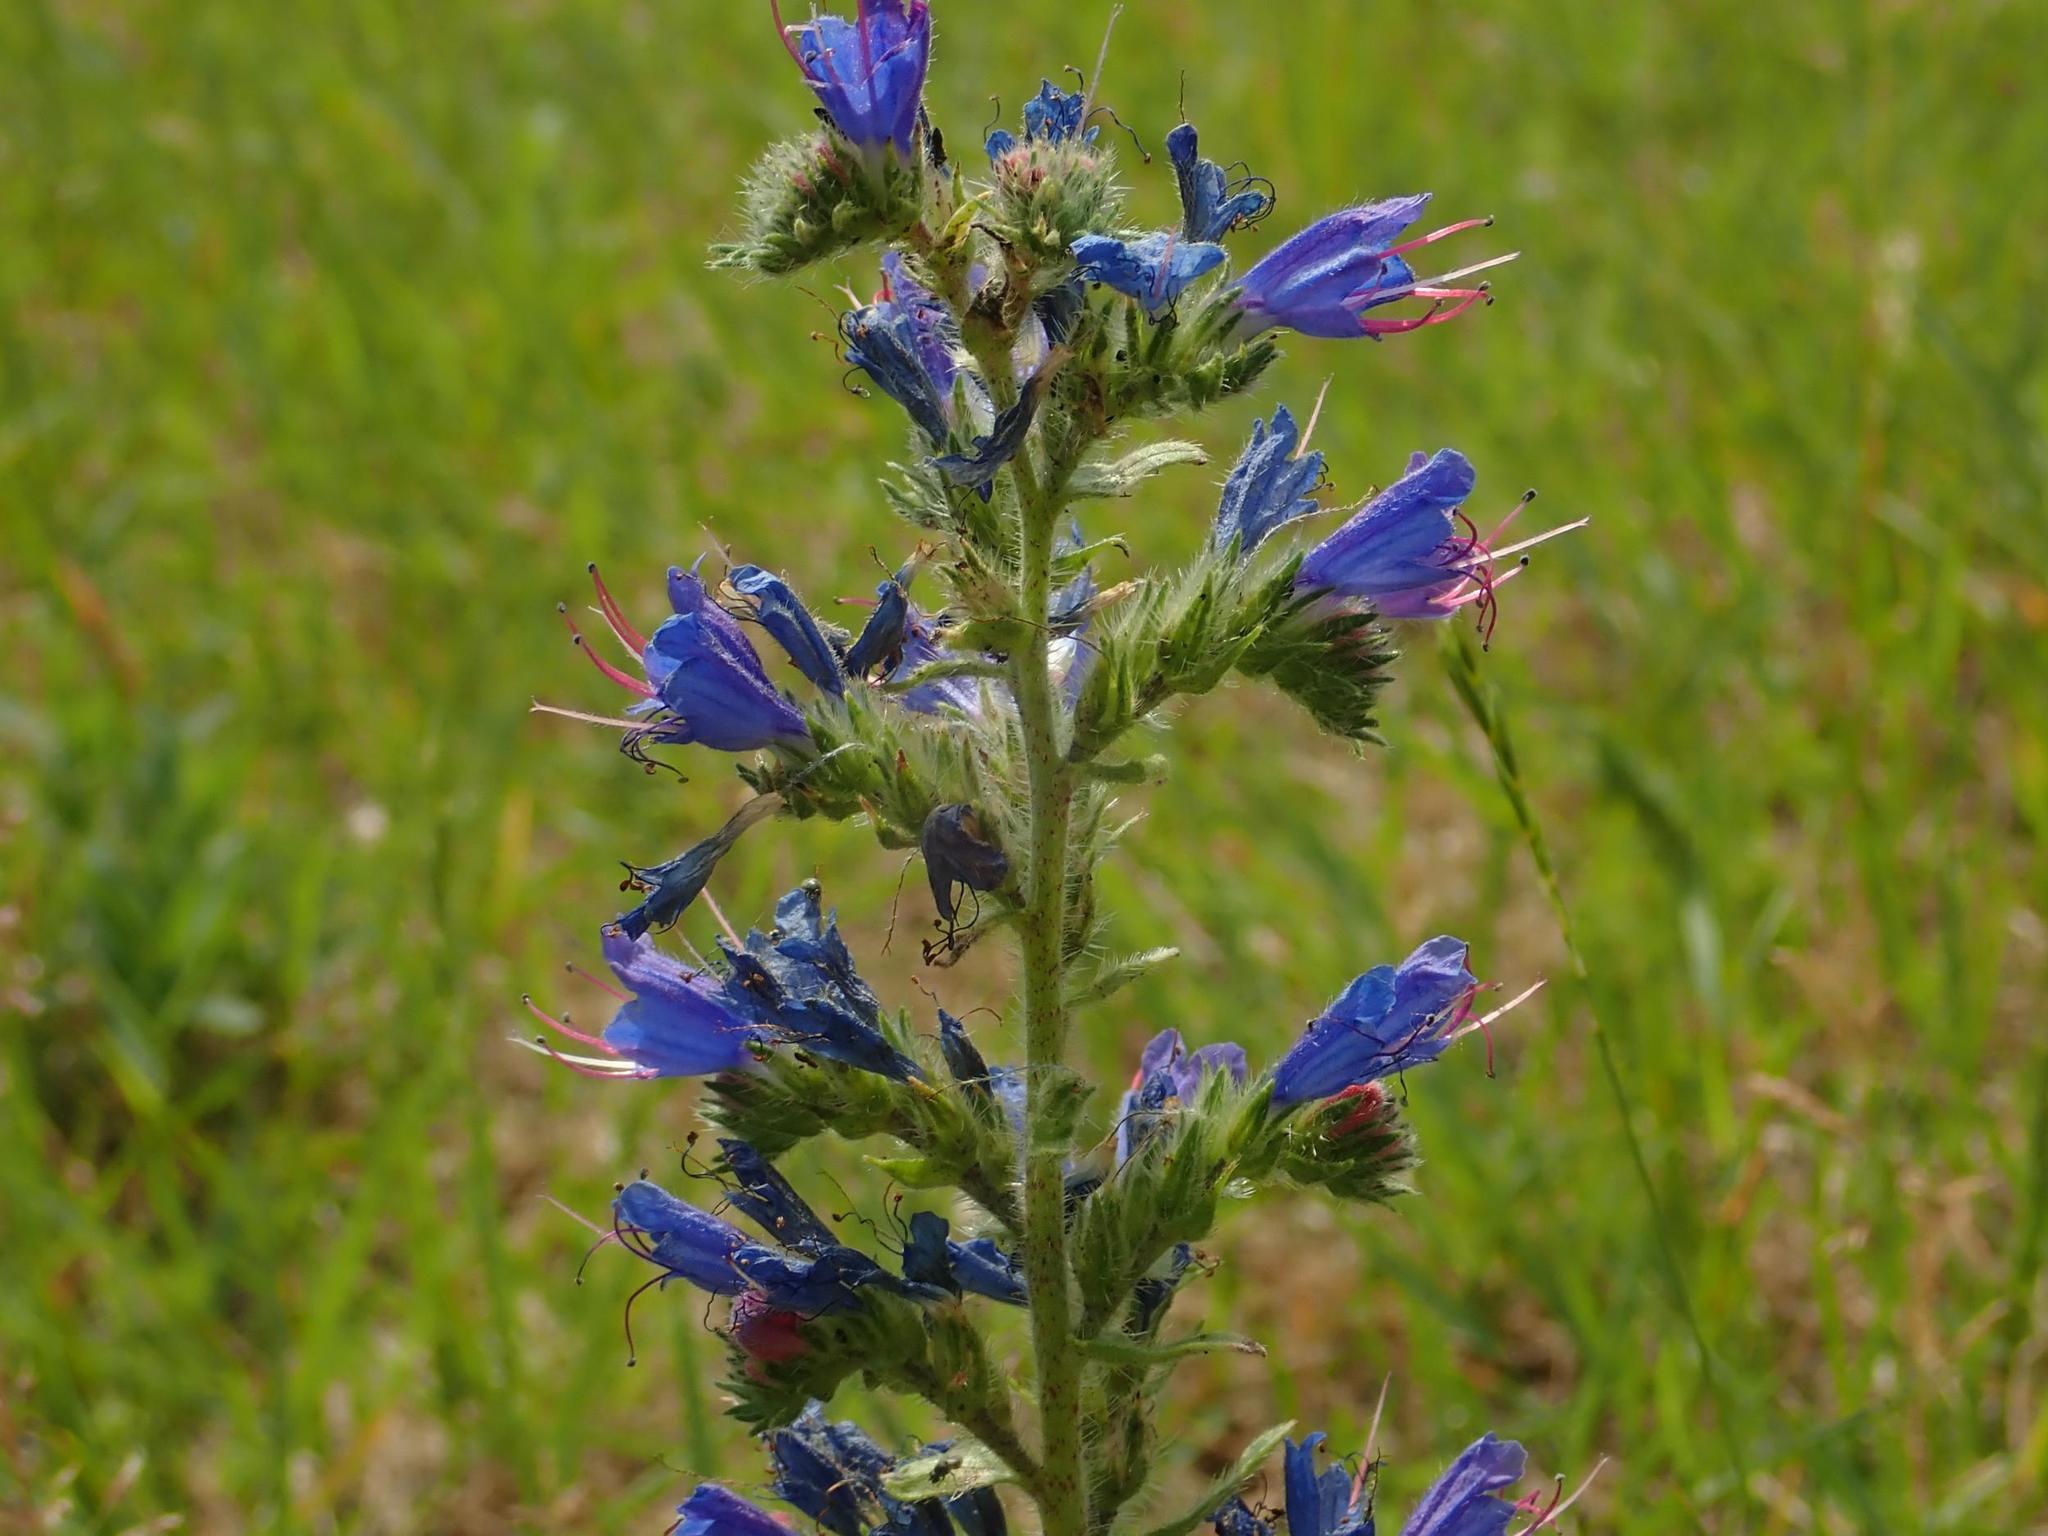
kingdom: Plantae
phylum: Tracheophyta
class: Magnoliopsida
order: Boraginales
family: Boraginaceae
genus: Echium
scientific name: Echium vulgare
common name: Common viper's bugloss
